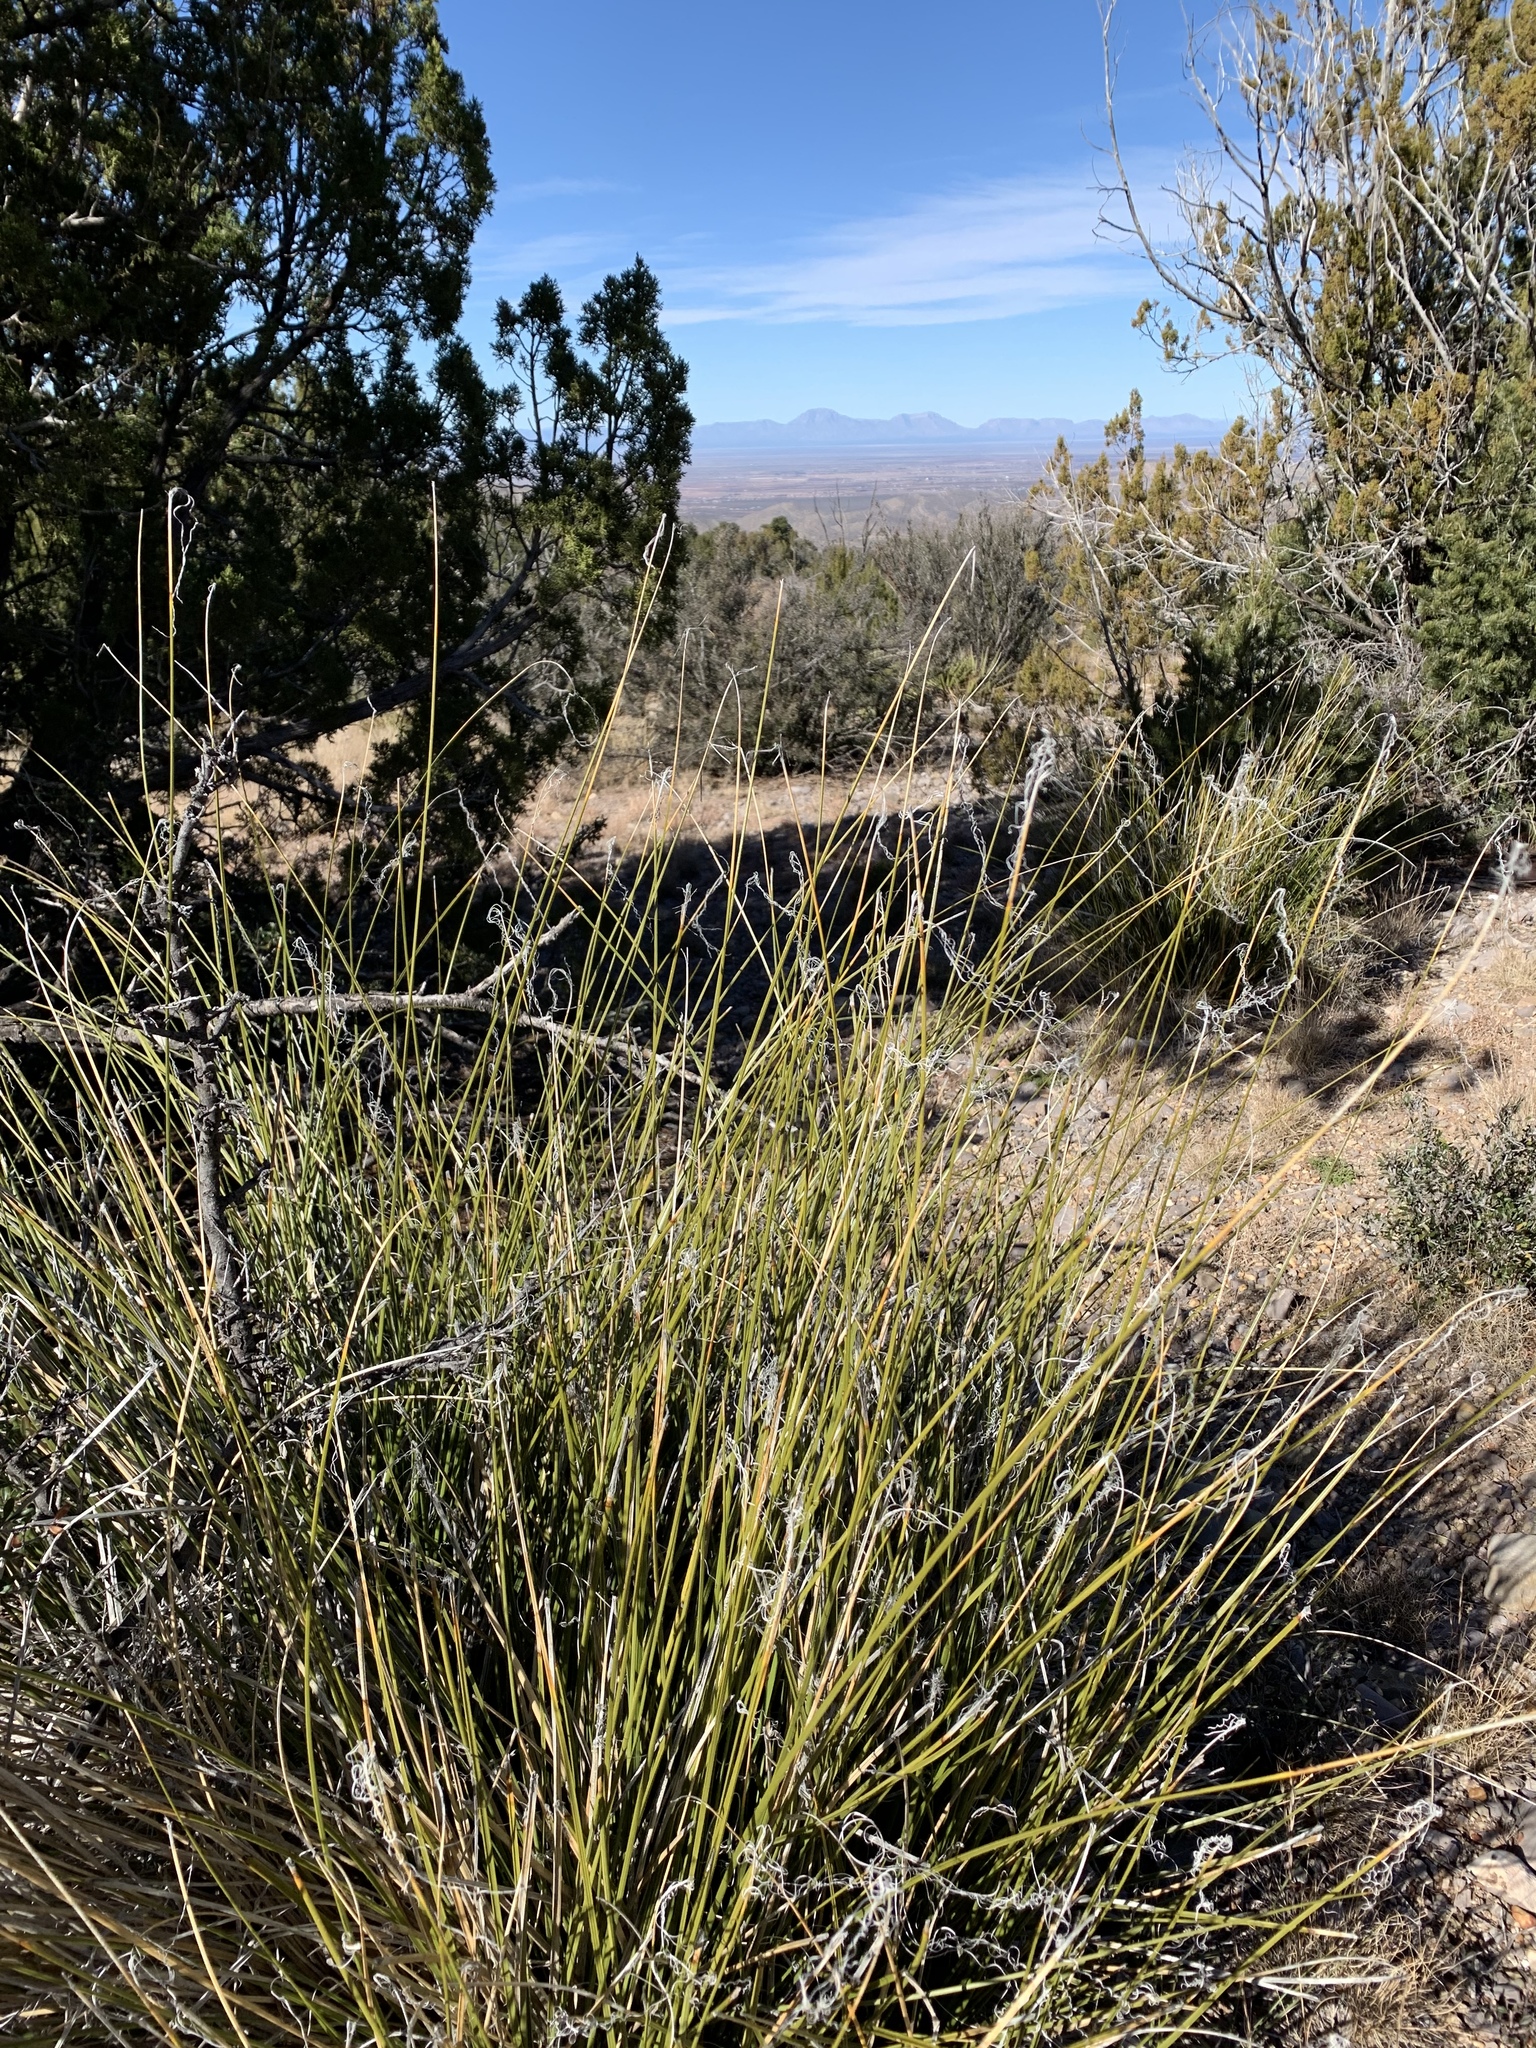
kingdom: Plantae
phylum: Tracheophyta
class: Liliopsida
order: Asparagales
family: Asparagaceae
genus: Nolina
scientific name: Nolina texana
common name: Texas sacahuiste
